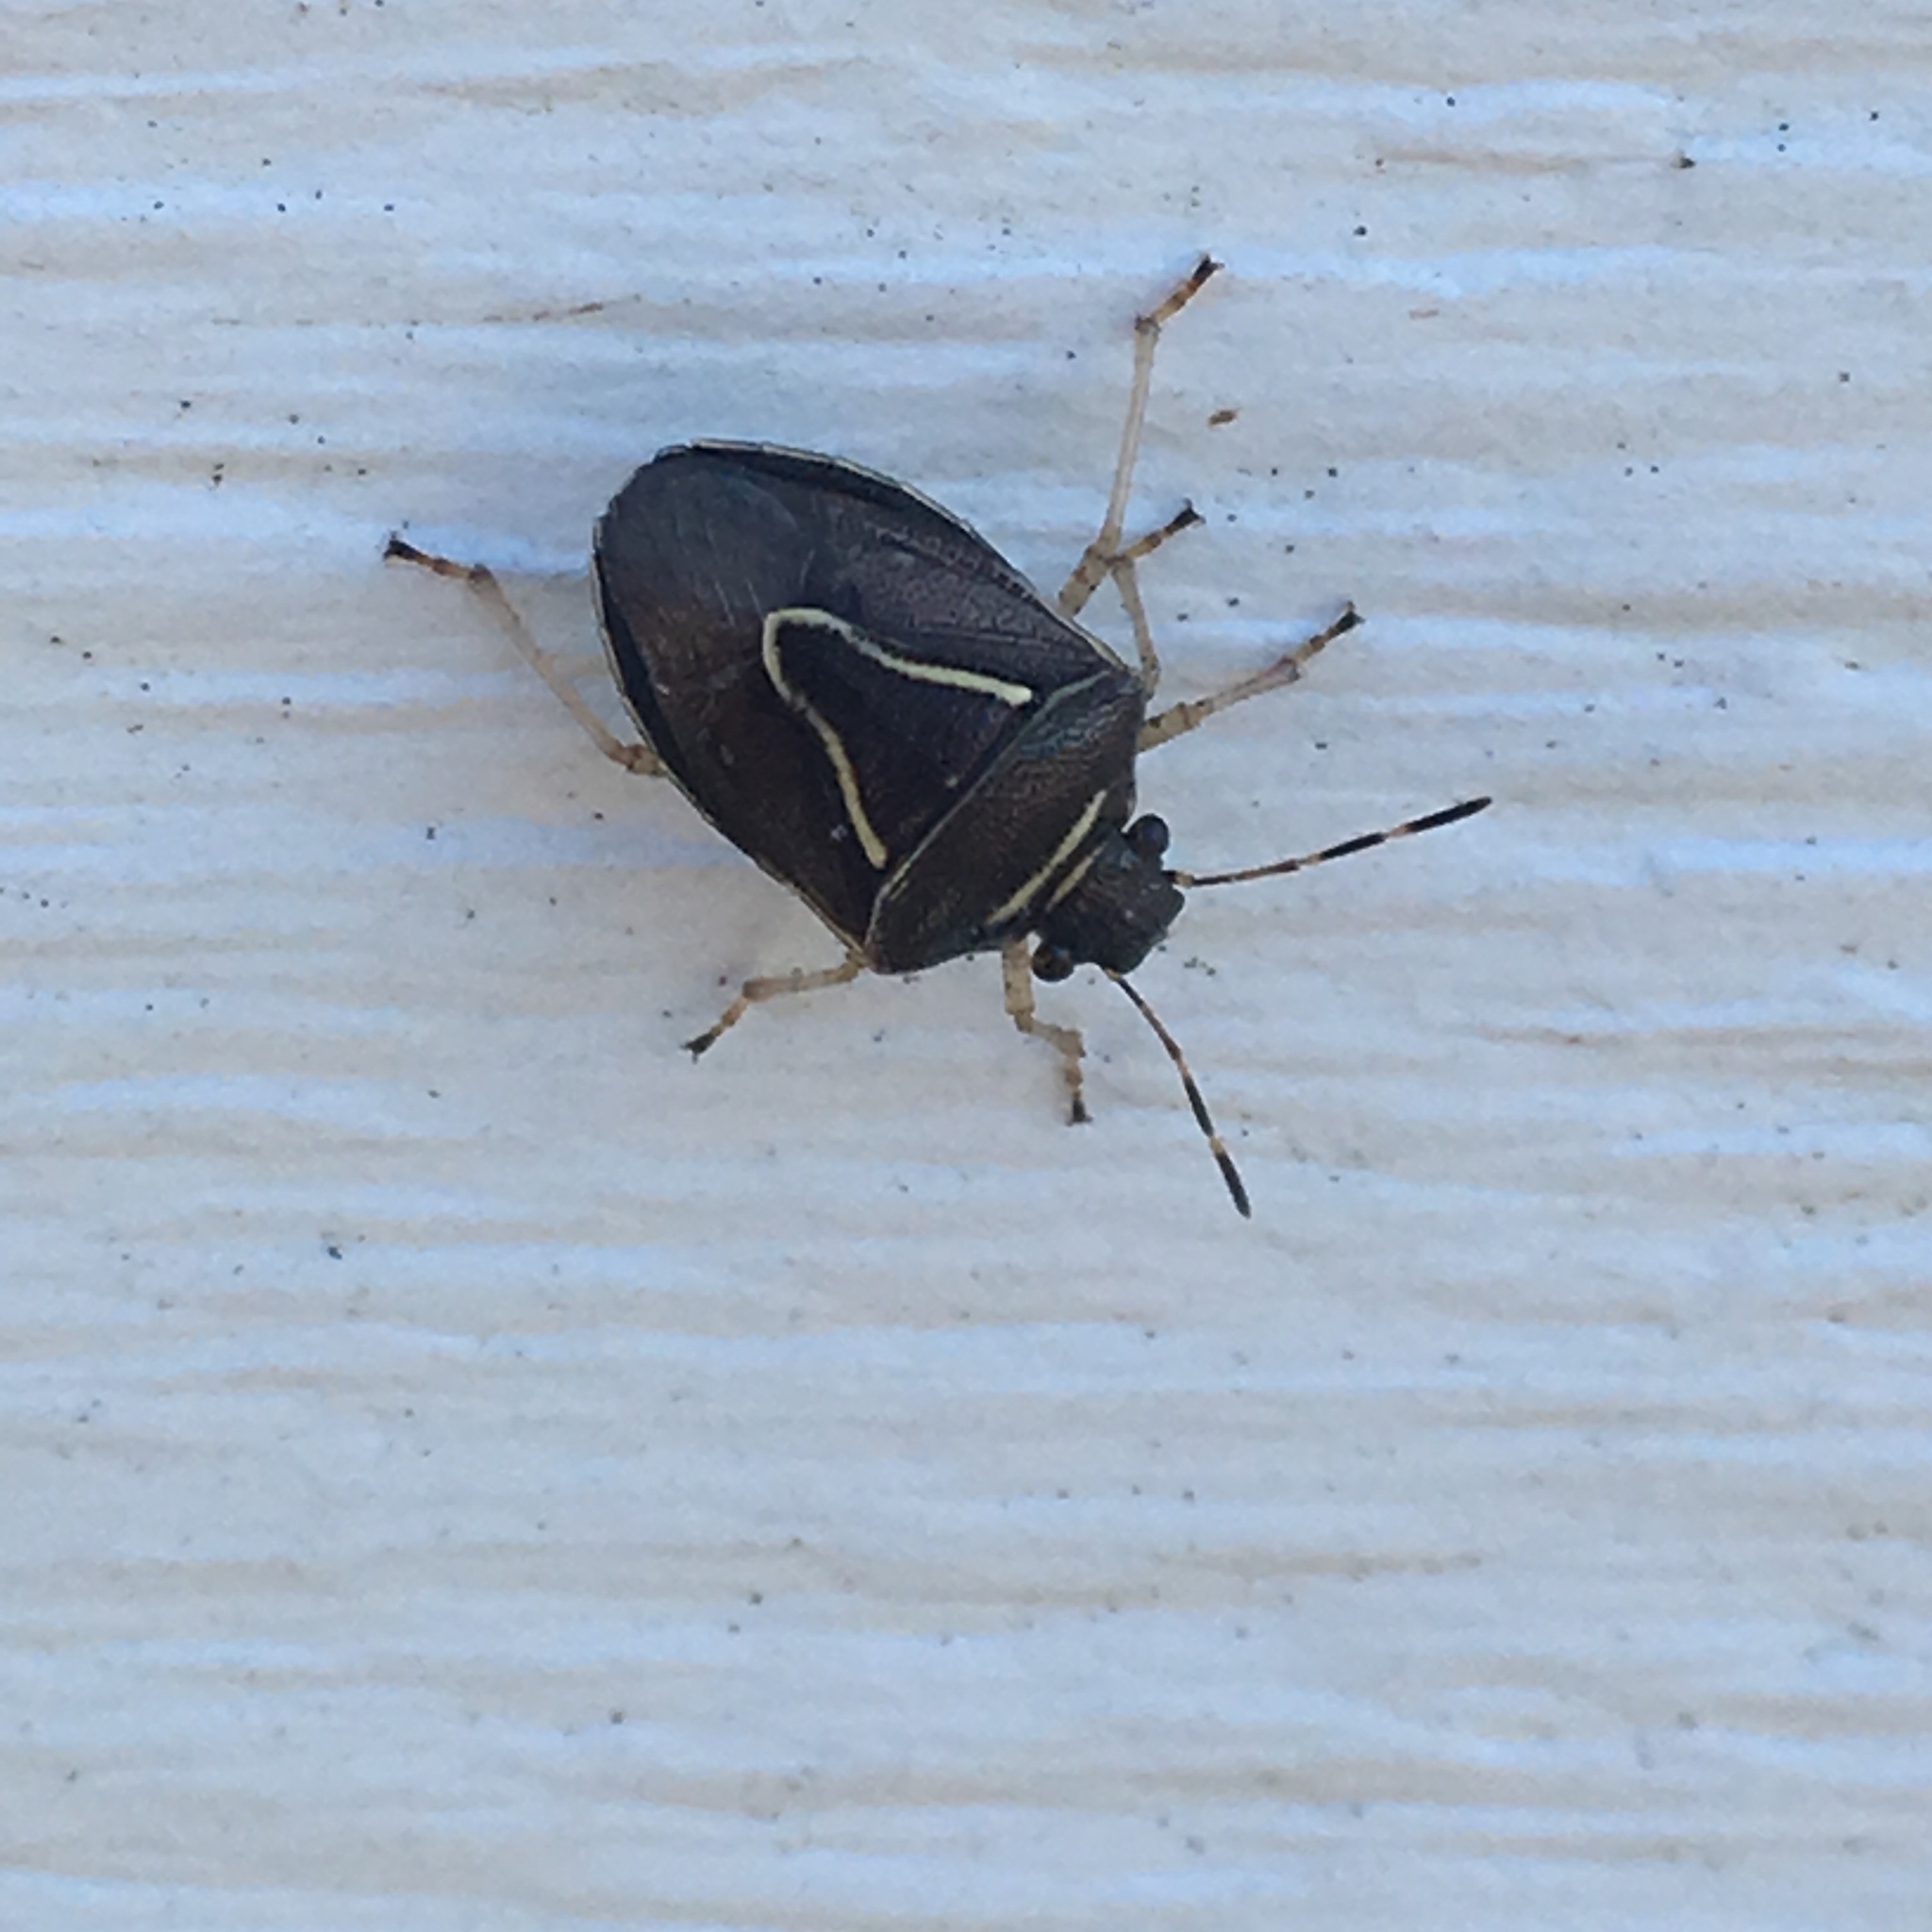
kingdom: Animalia
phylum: Arthropoda
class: Insecta
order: Hemiptera
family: Pentatomidae
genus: Mormidea
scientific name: Mormidea lugens
